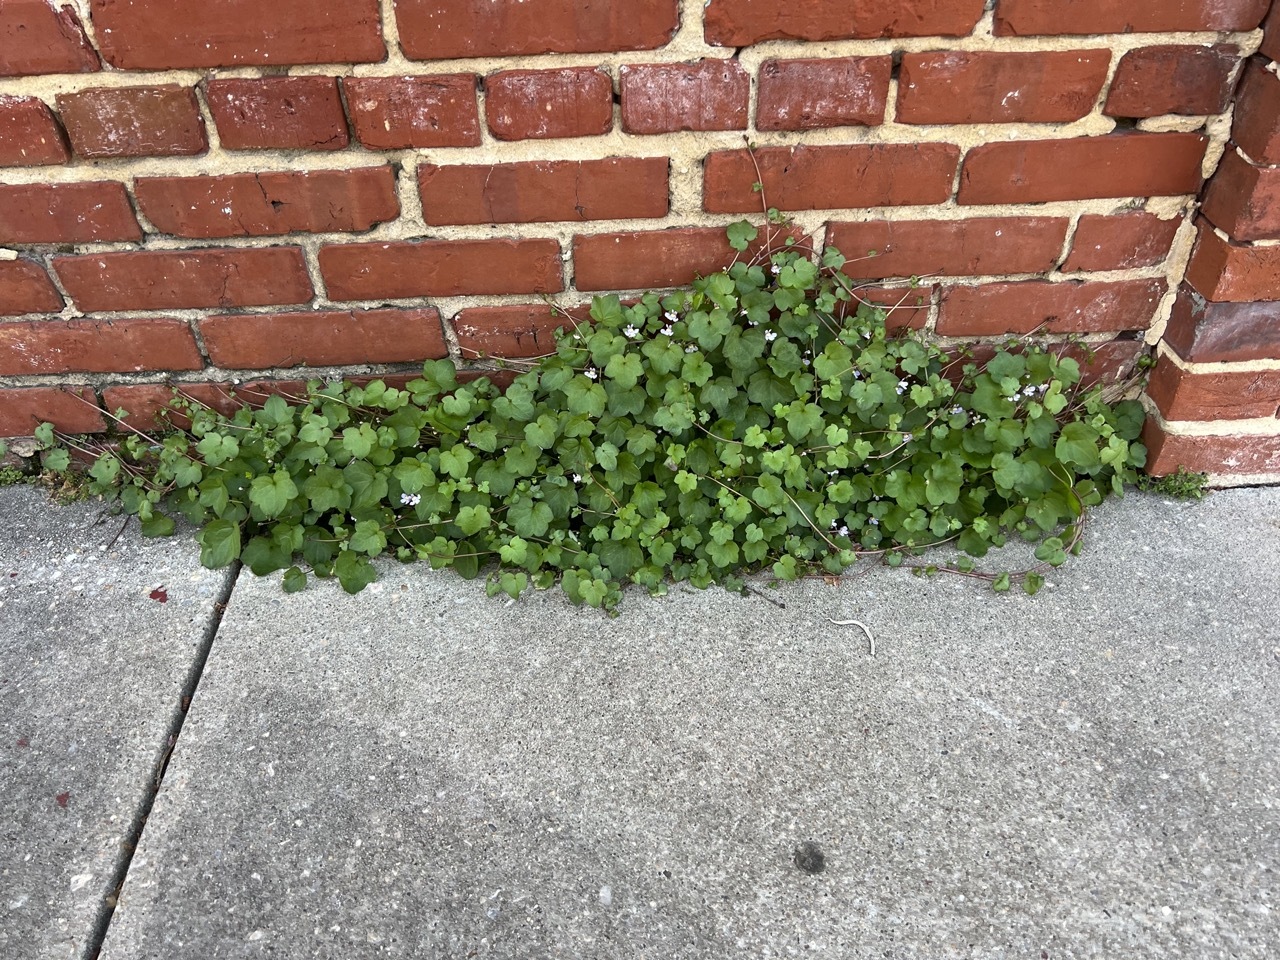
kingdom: Plantae
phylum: Tracheophyta
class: Magnoliopsida
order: Lamiales
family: Plantaginaceae
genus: Cymbalaria
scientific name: Cymbalaria muralis
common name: Ivy-leaved toadflax
